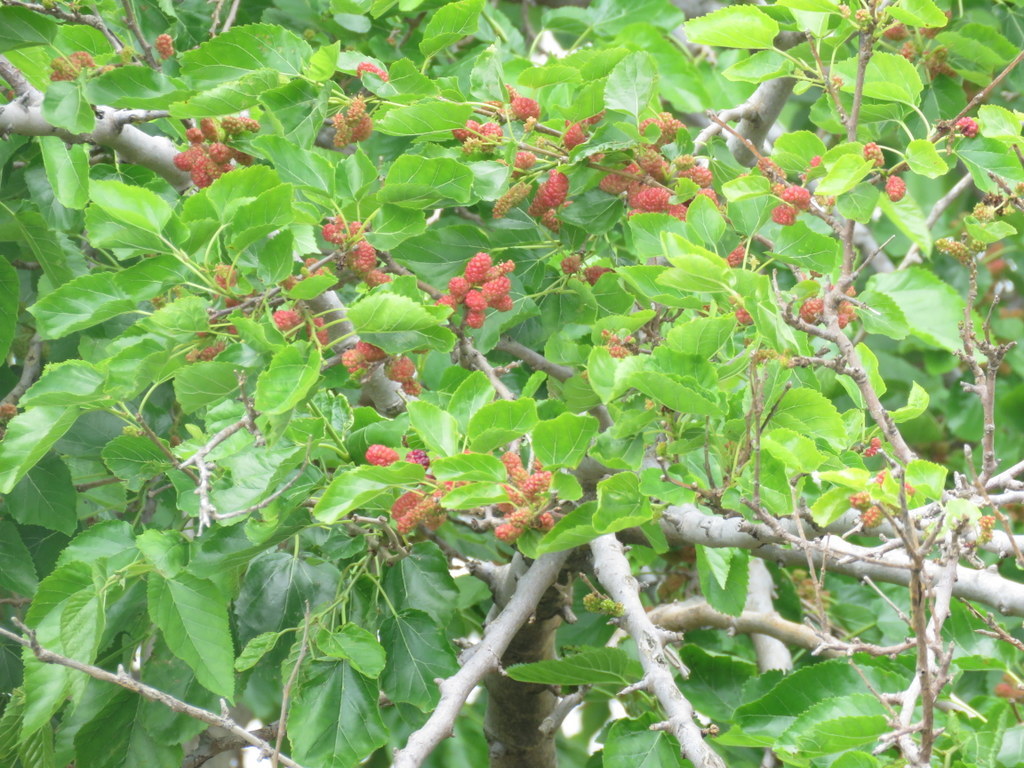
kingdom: Plantae
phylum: Tracheophyta
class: Magnoliopsida
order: Rosales
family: Moraceae
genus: Morus
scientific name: Morus nigra
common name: Black mulberry
